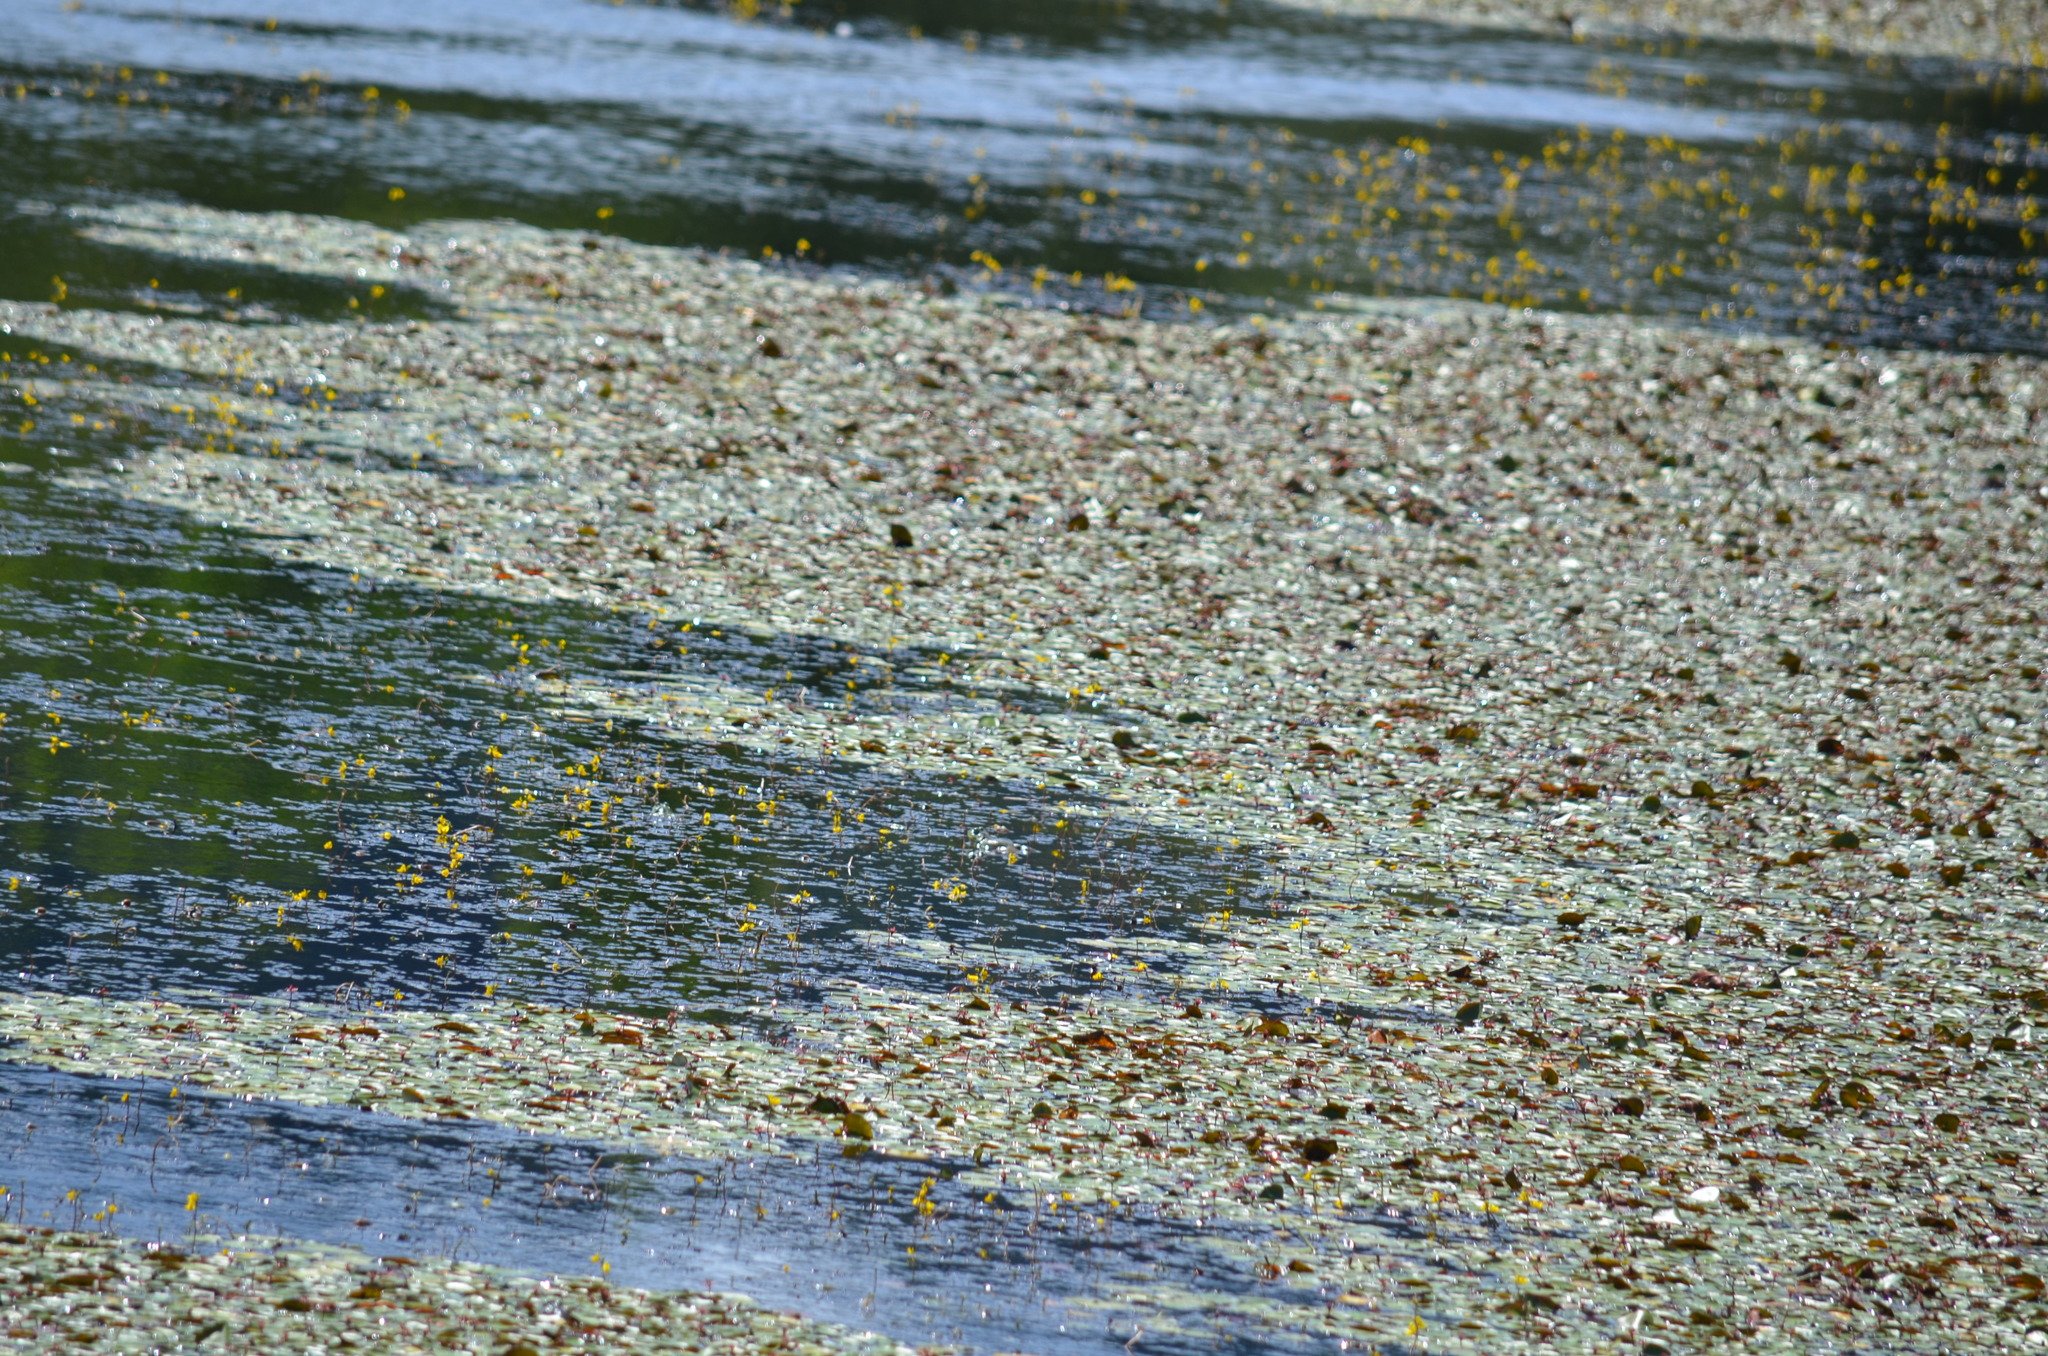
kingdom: Animalia
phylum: Chordata
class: Amphibia
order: Anura
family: Ranidae
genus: Lithobates
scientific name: Lithobates catesbeianus
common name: American bullfrog
